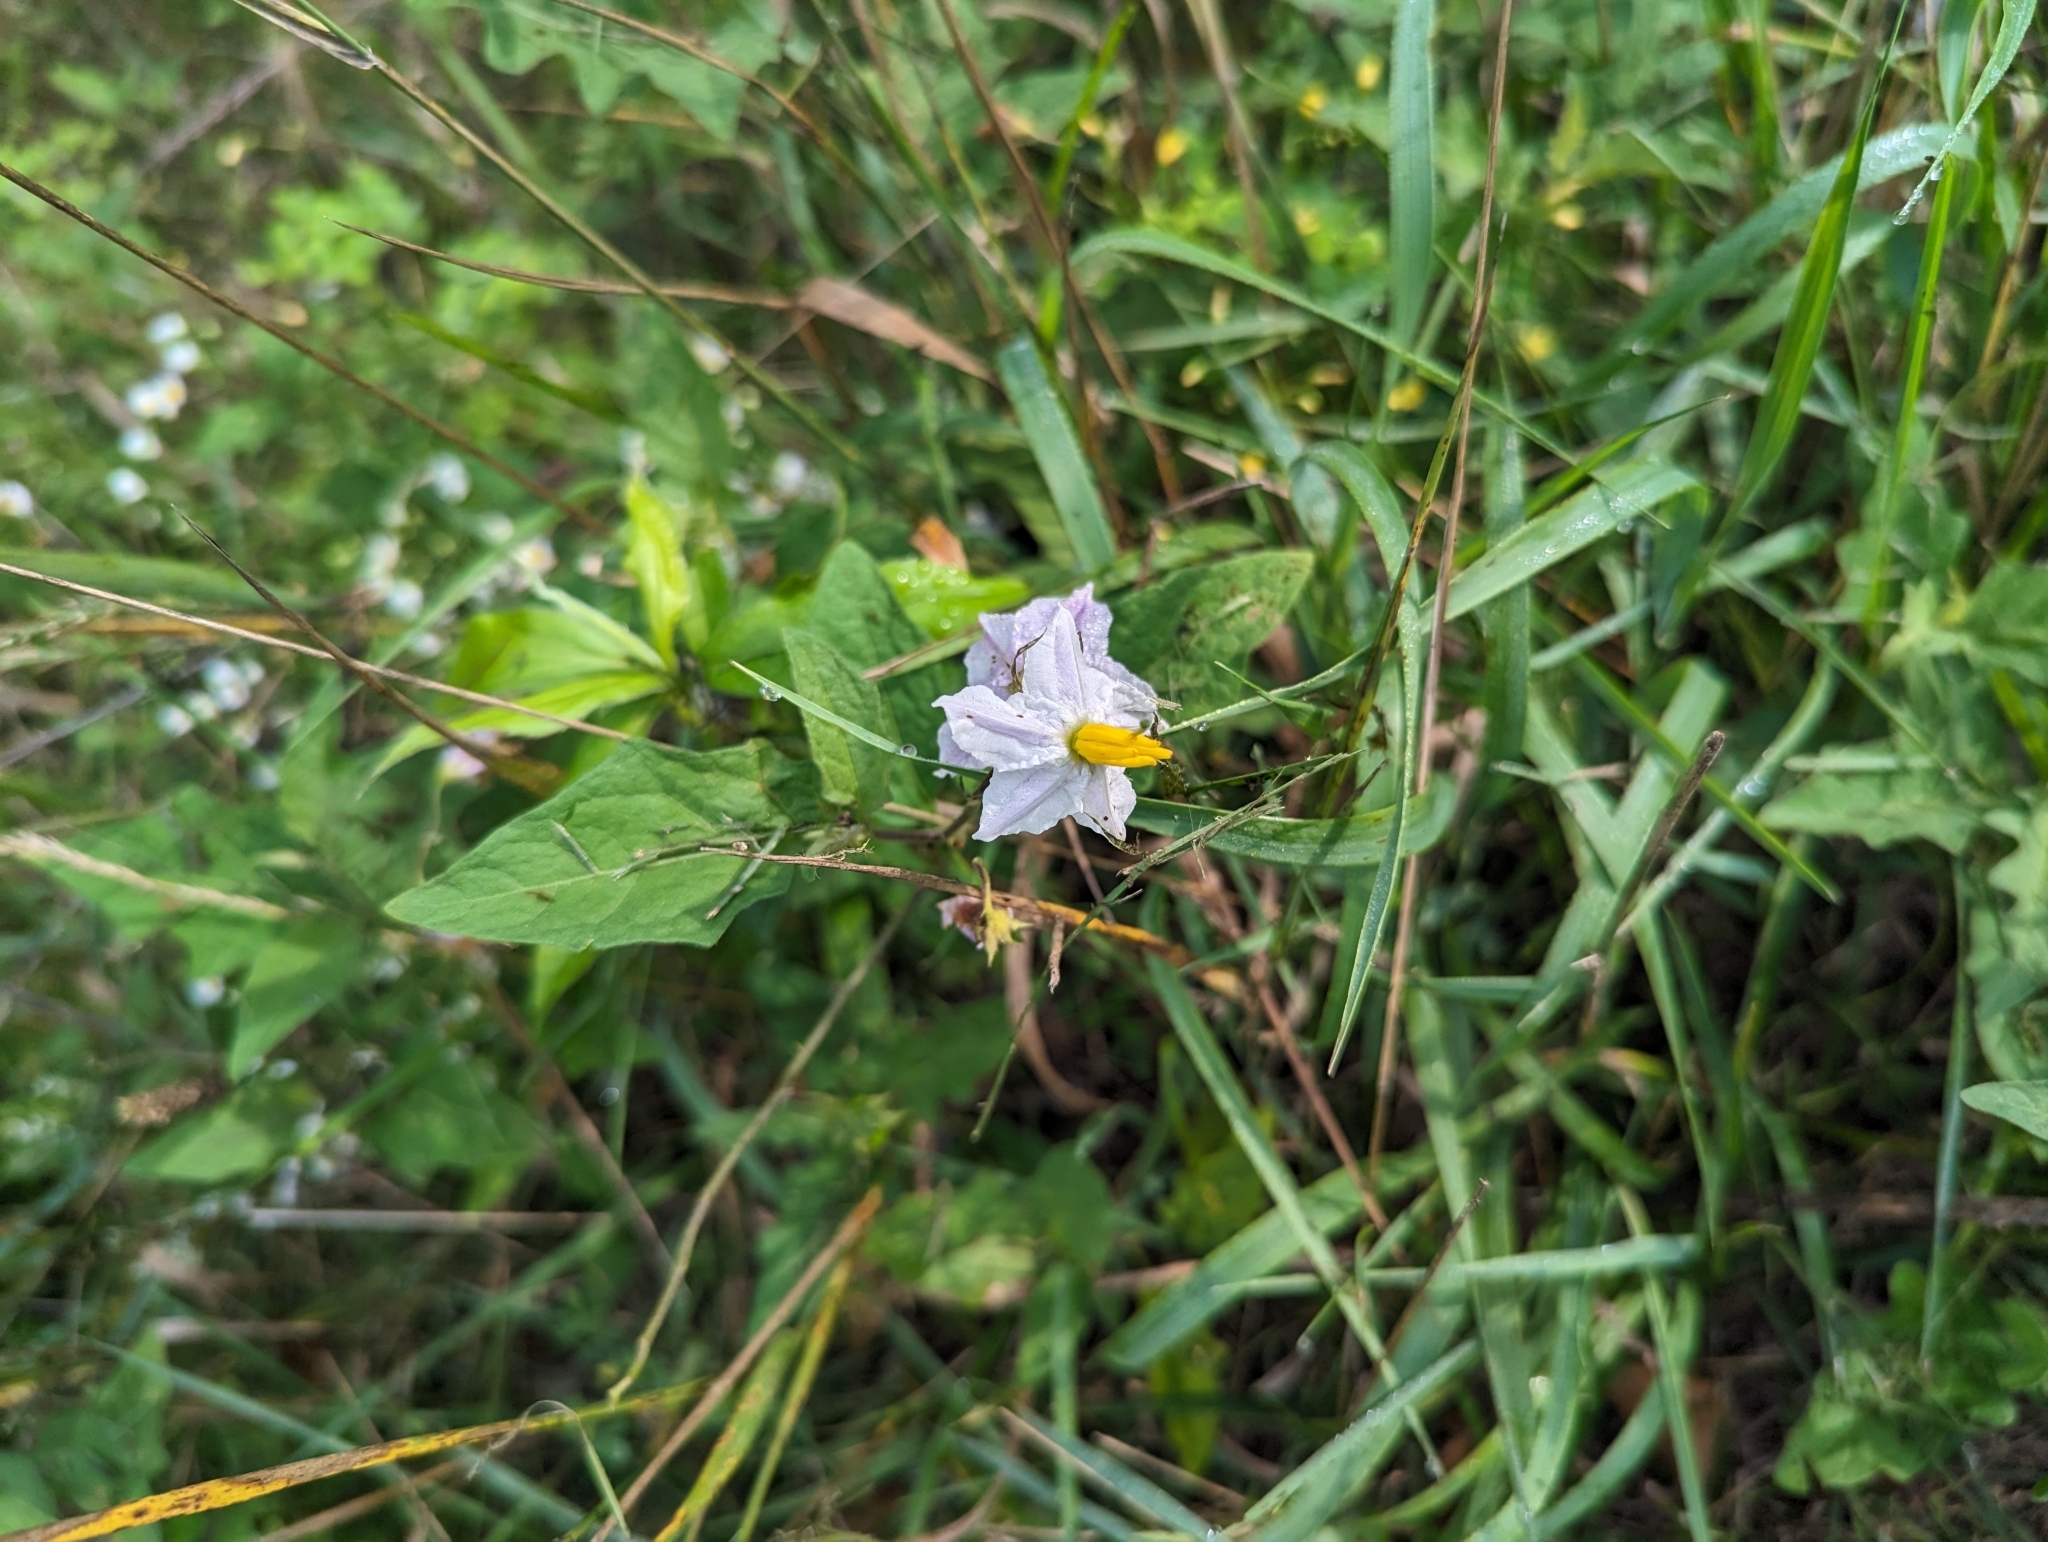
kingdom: Plantae
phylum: Tracheophyta
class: Magnoliopsida
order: Solanales
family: Solanaceae
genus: Solanum
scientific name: Solanum carolinense
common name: Horse-nettle
